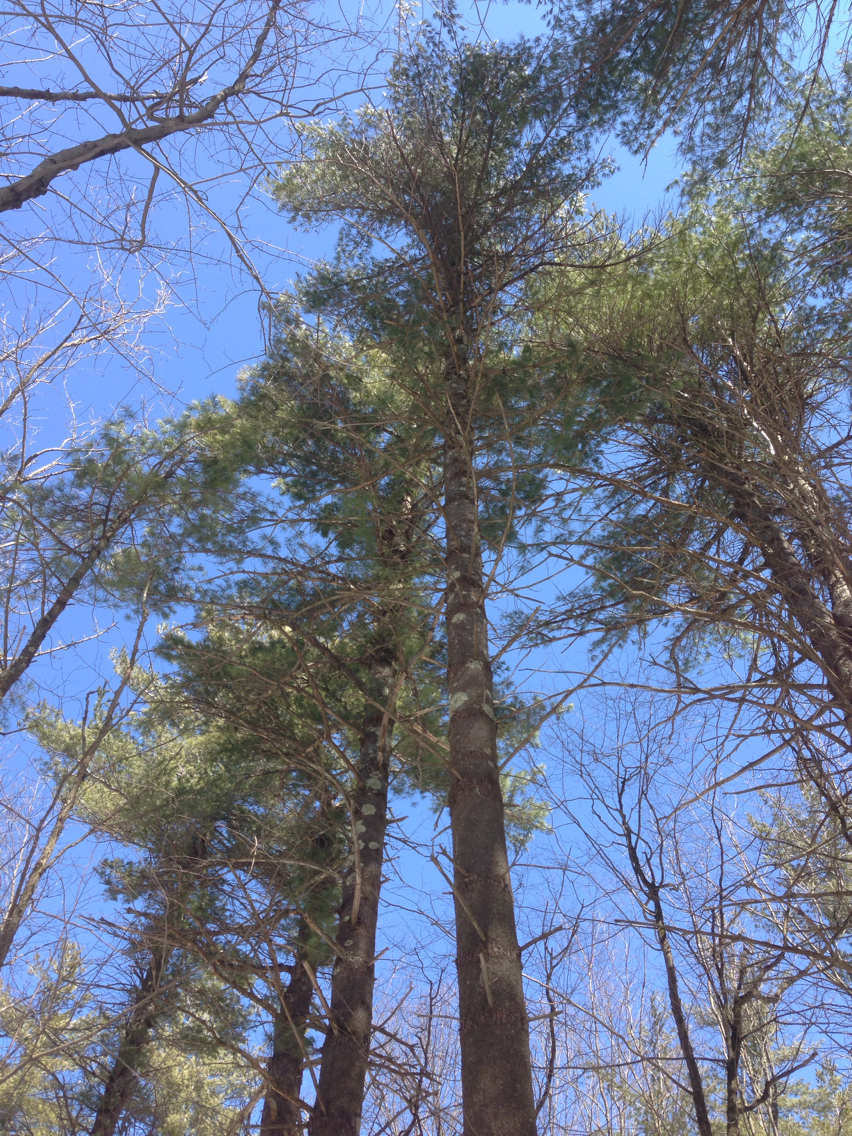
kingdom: Plantae
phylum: Tracheophyta
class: Pinopsida
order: Pinales
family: Pinaceae
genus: Pinus
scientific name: Pinus strobus
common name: Weymouth pine
